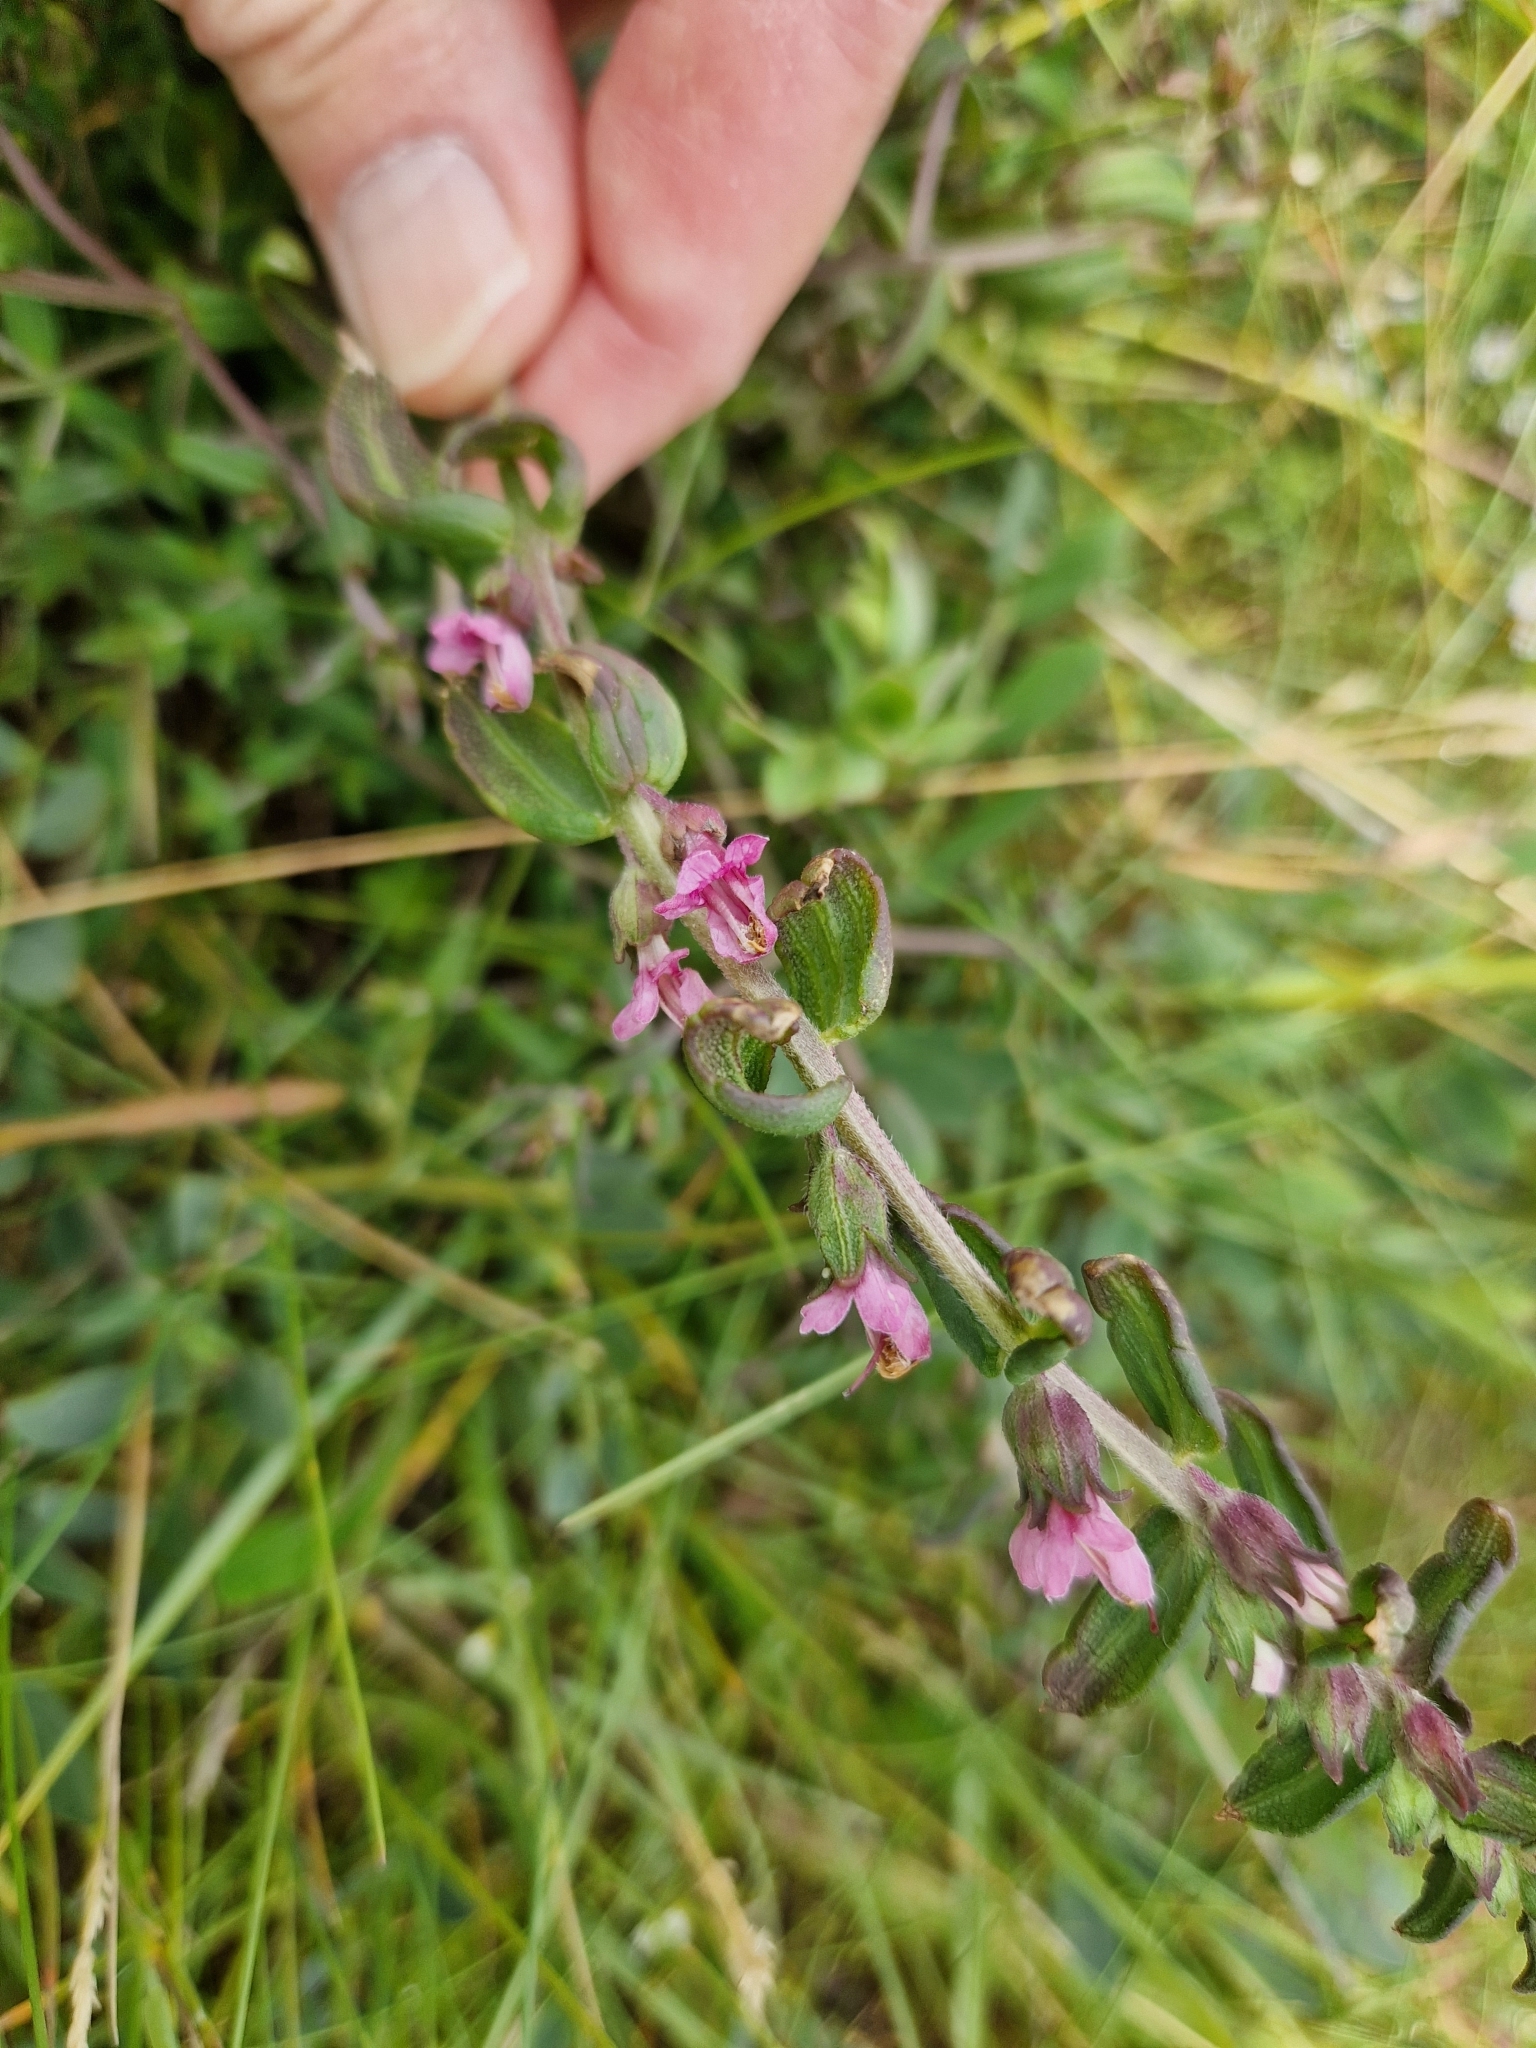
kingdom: Plantae
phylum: Tracheophyta
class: Magnoliopsida
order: Lamiales
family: Orobanchaceae
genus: Odontites
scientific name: Odontites vulgaris
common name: Broomrape
